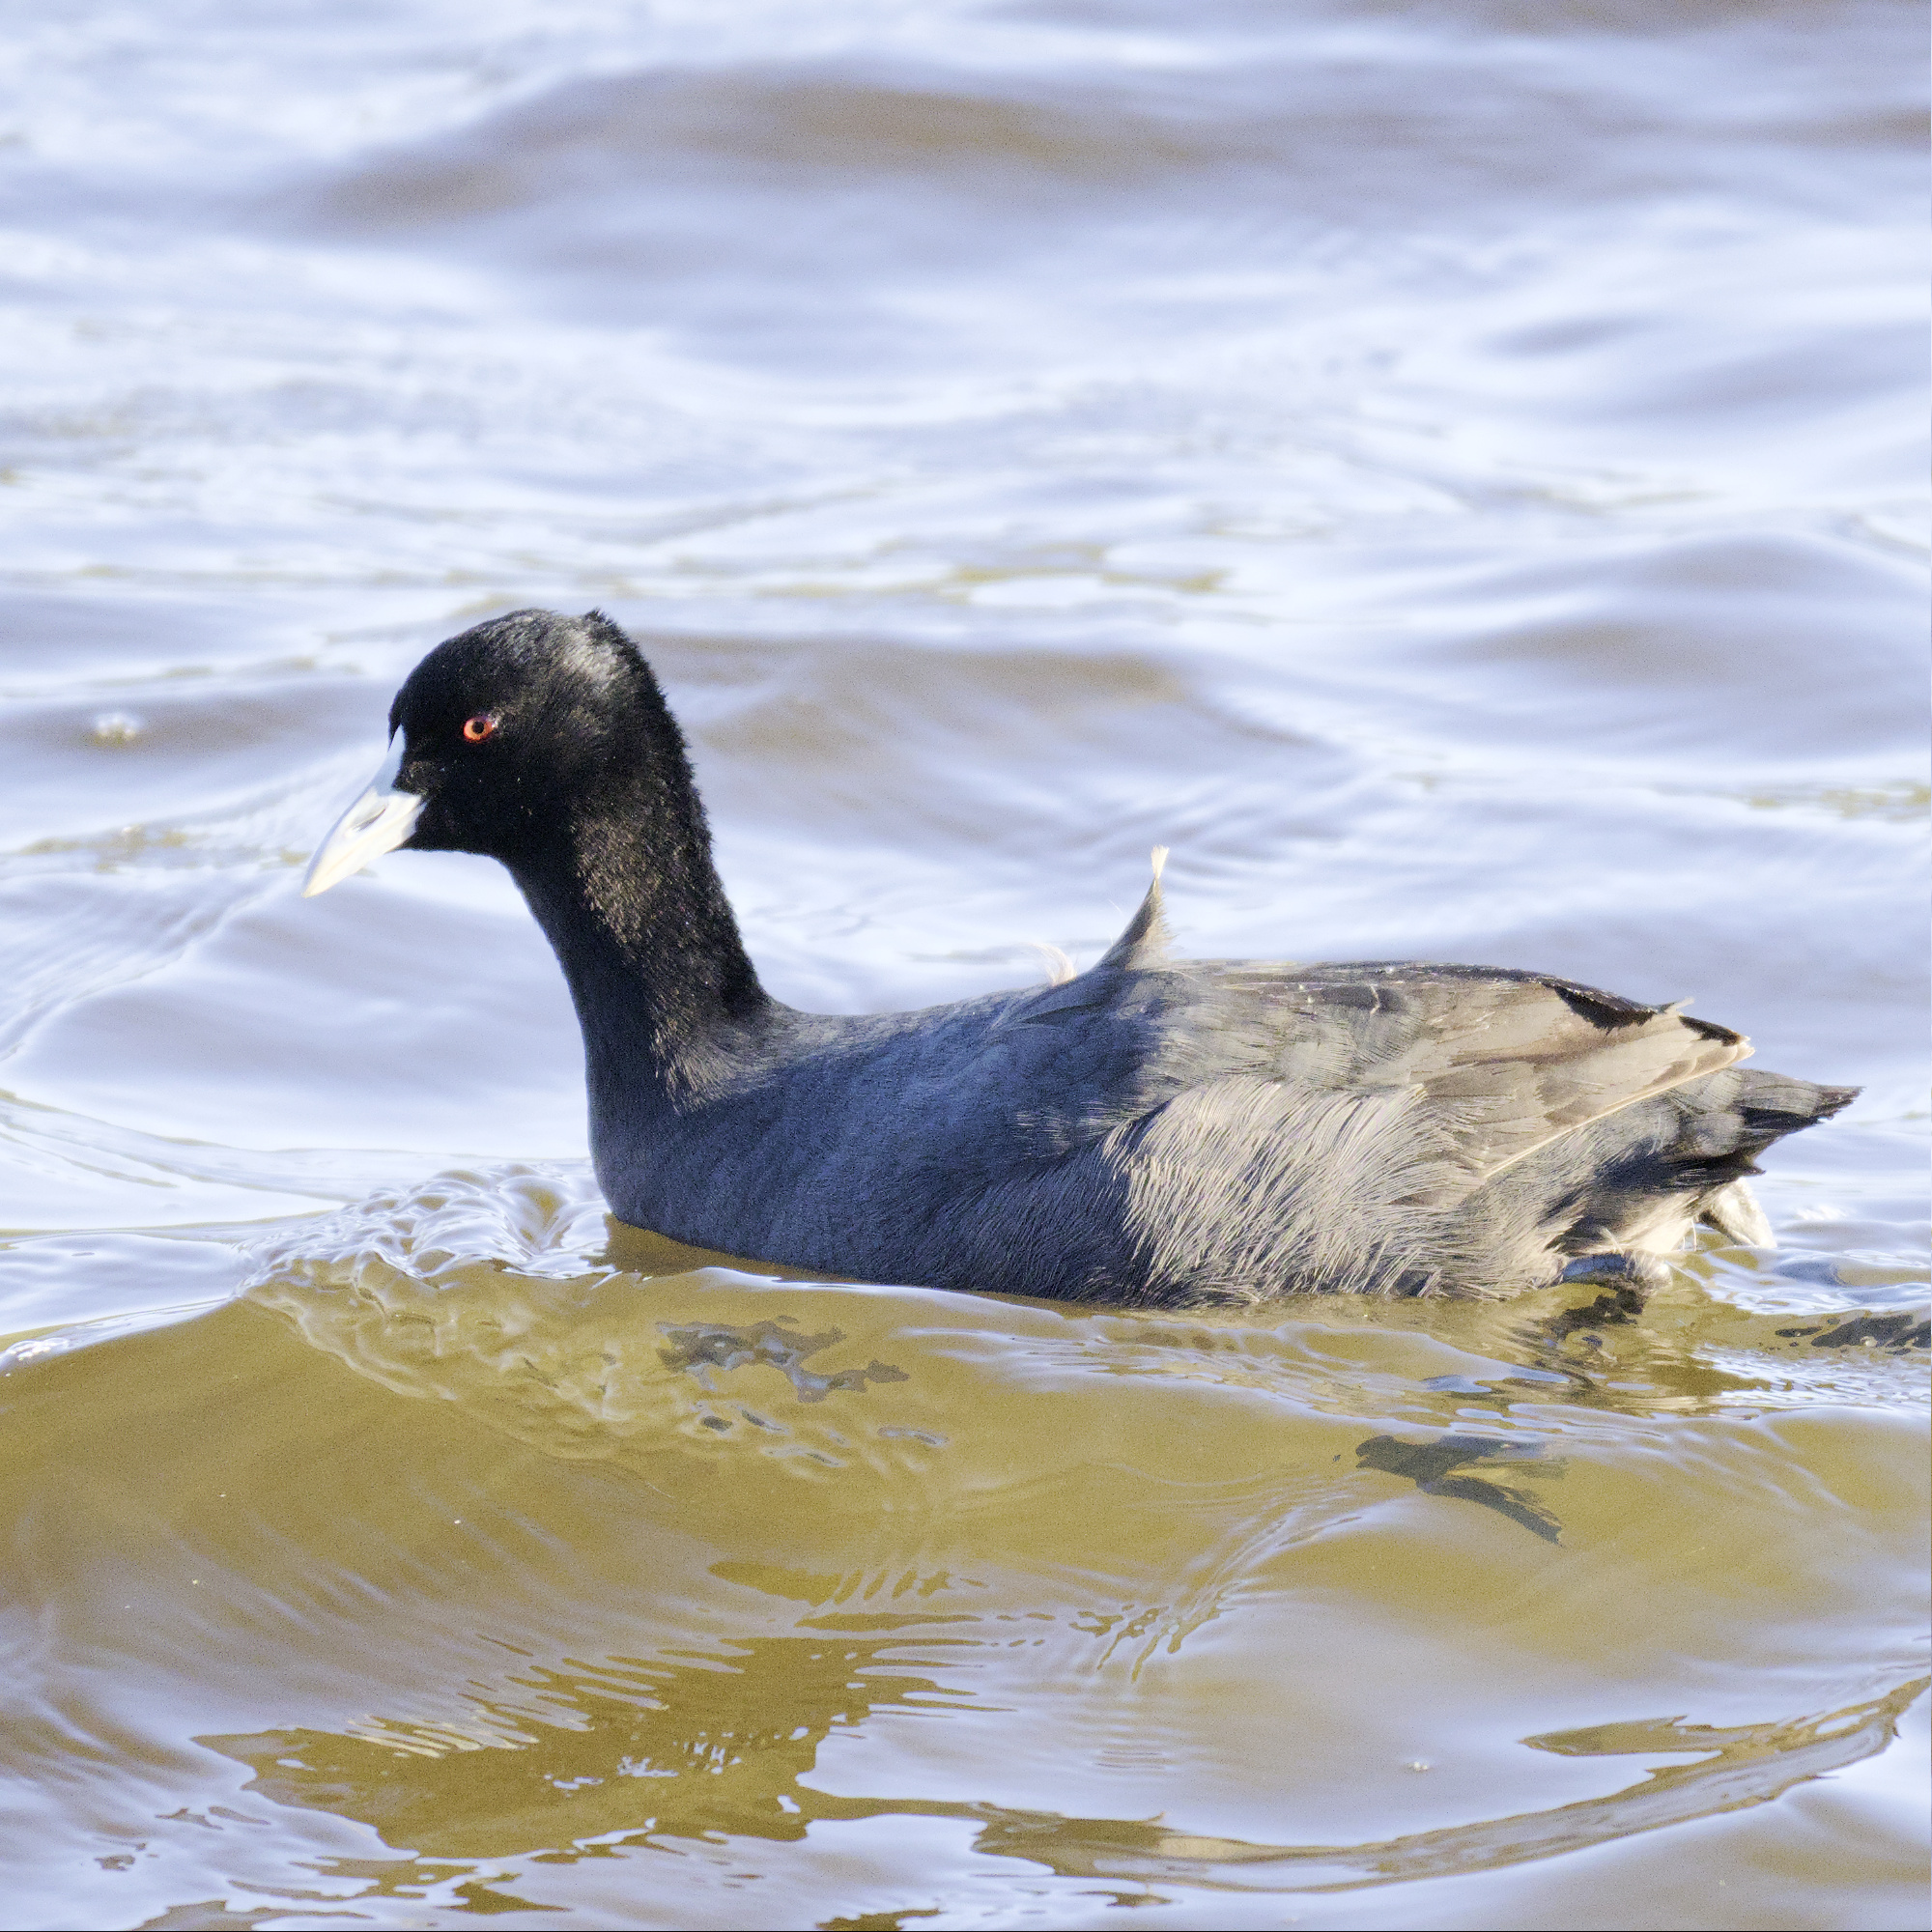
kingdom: Animalia
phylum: Chordata
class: Aves
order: Gruiformes
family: Rallidae
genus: Fulica
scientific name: Fulica atra
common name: Eurasian coot
